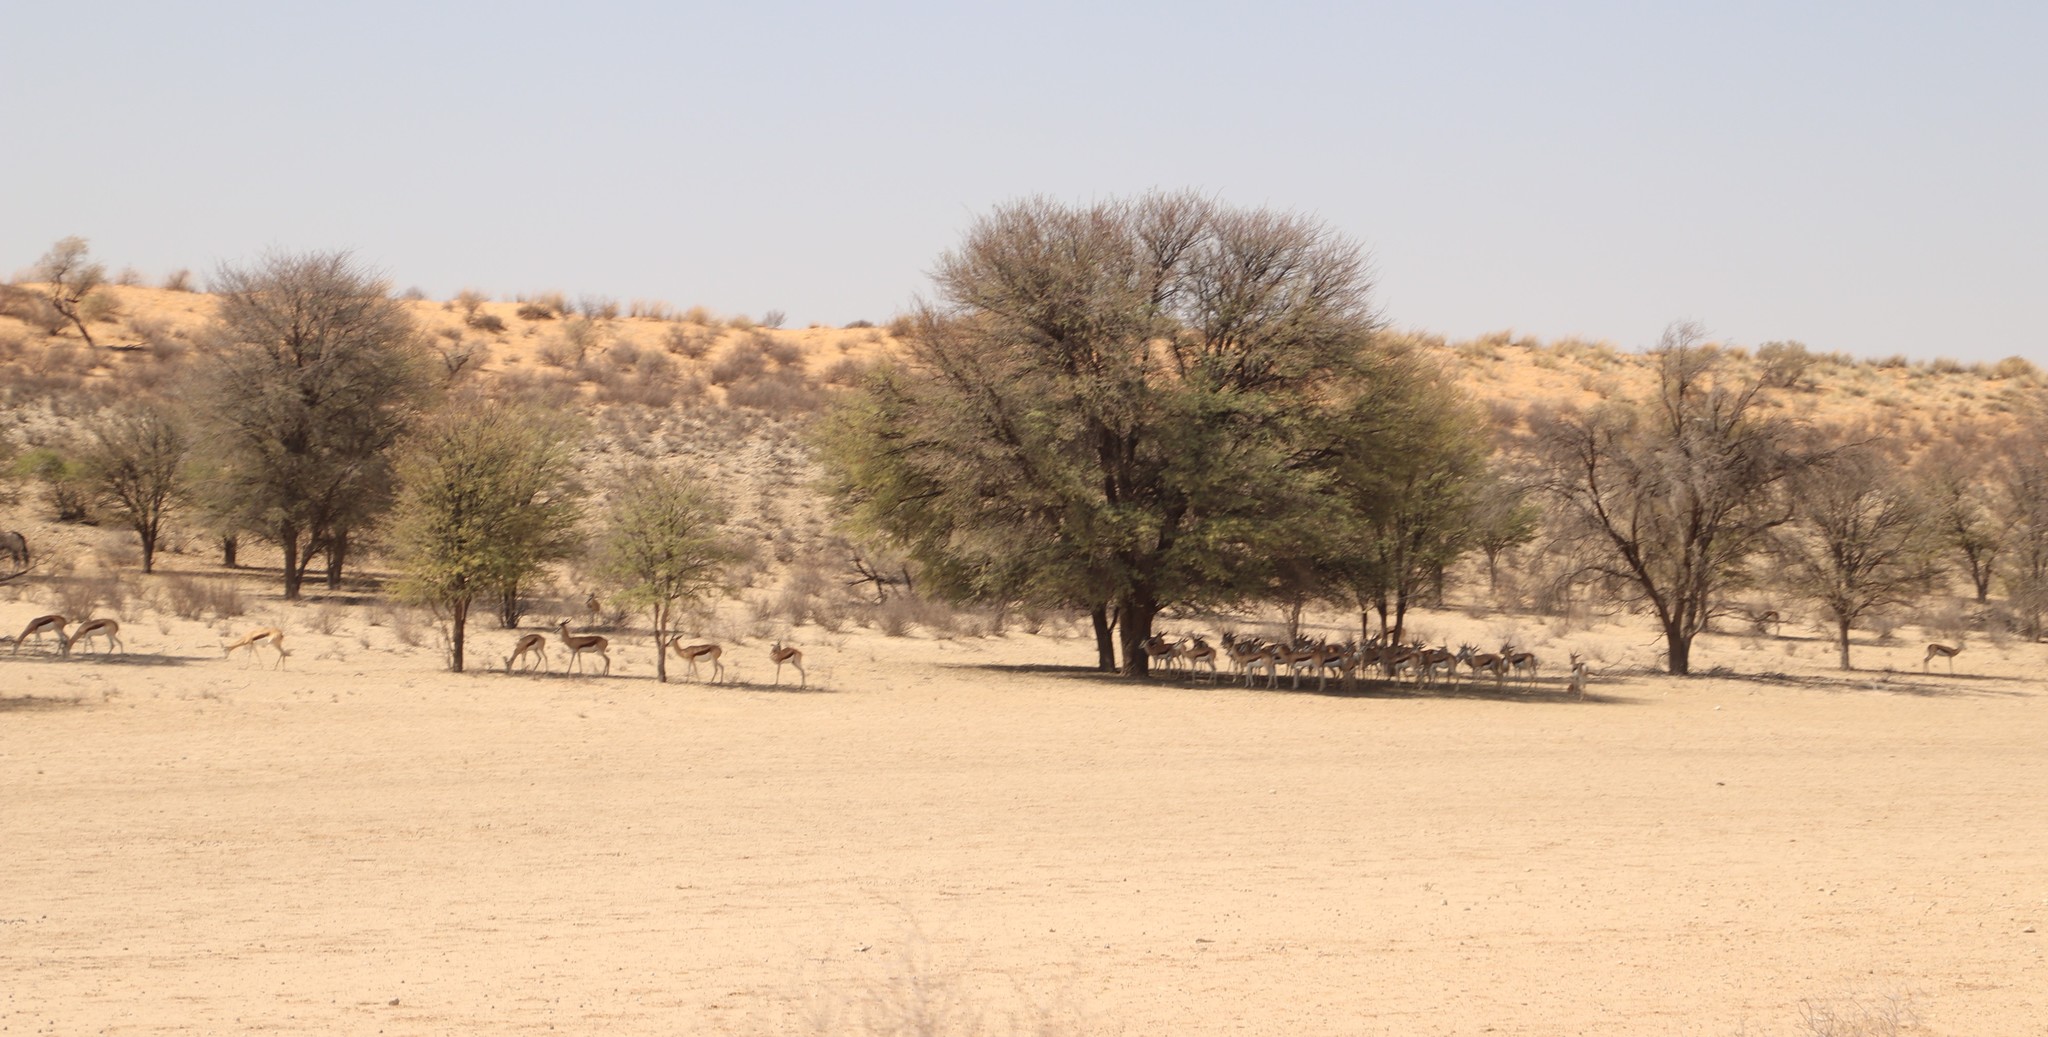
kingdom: Animalia
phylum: Chordata
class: Mammalia
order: Artiodactyla
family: Bovidae
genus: Antidorcas
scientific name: Antidorcas marsupialis
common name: Springbok
